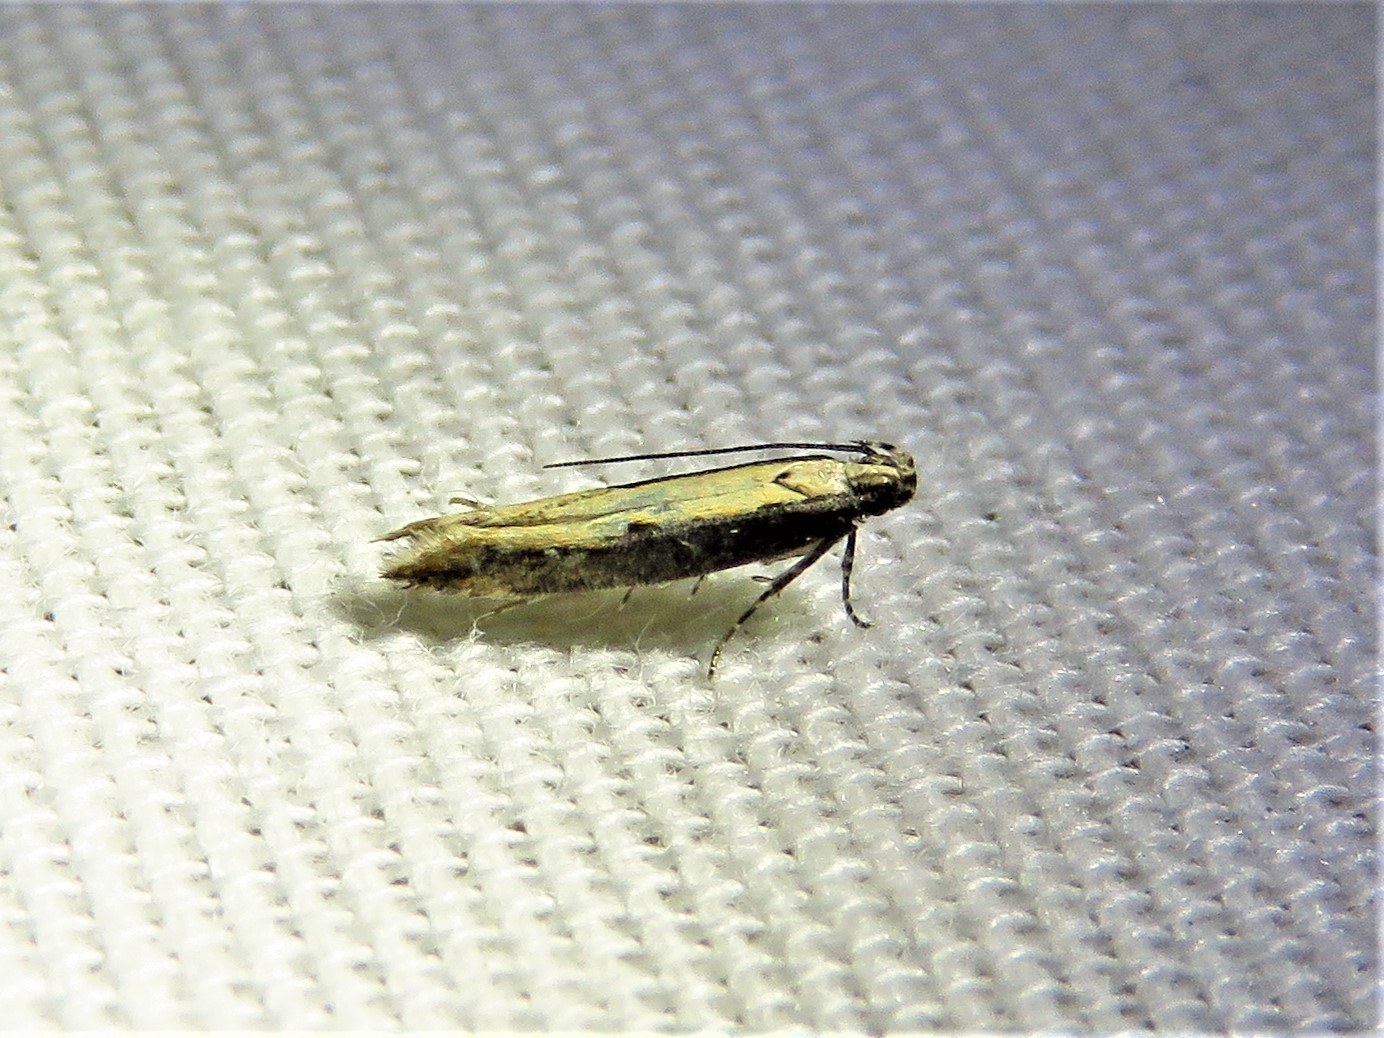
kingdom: Animalia
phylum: Arthropoda
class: Insecta
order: Lepidoptera
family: Gelechiidae
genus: Aristotelia
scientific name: Aristotelia corallina
